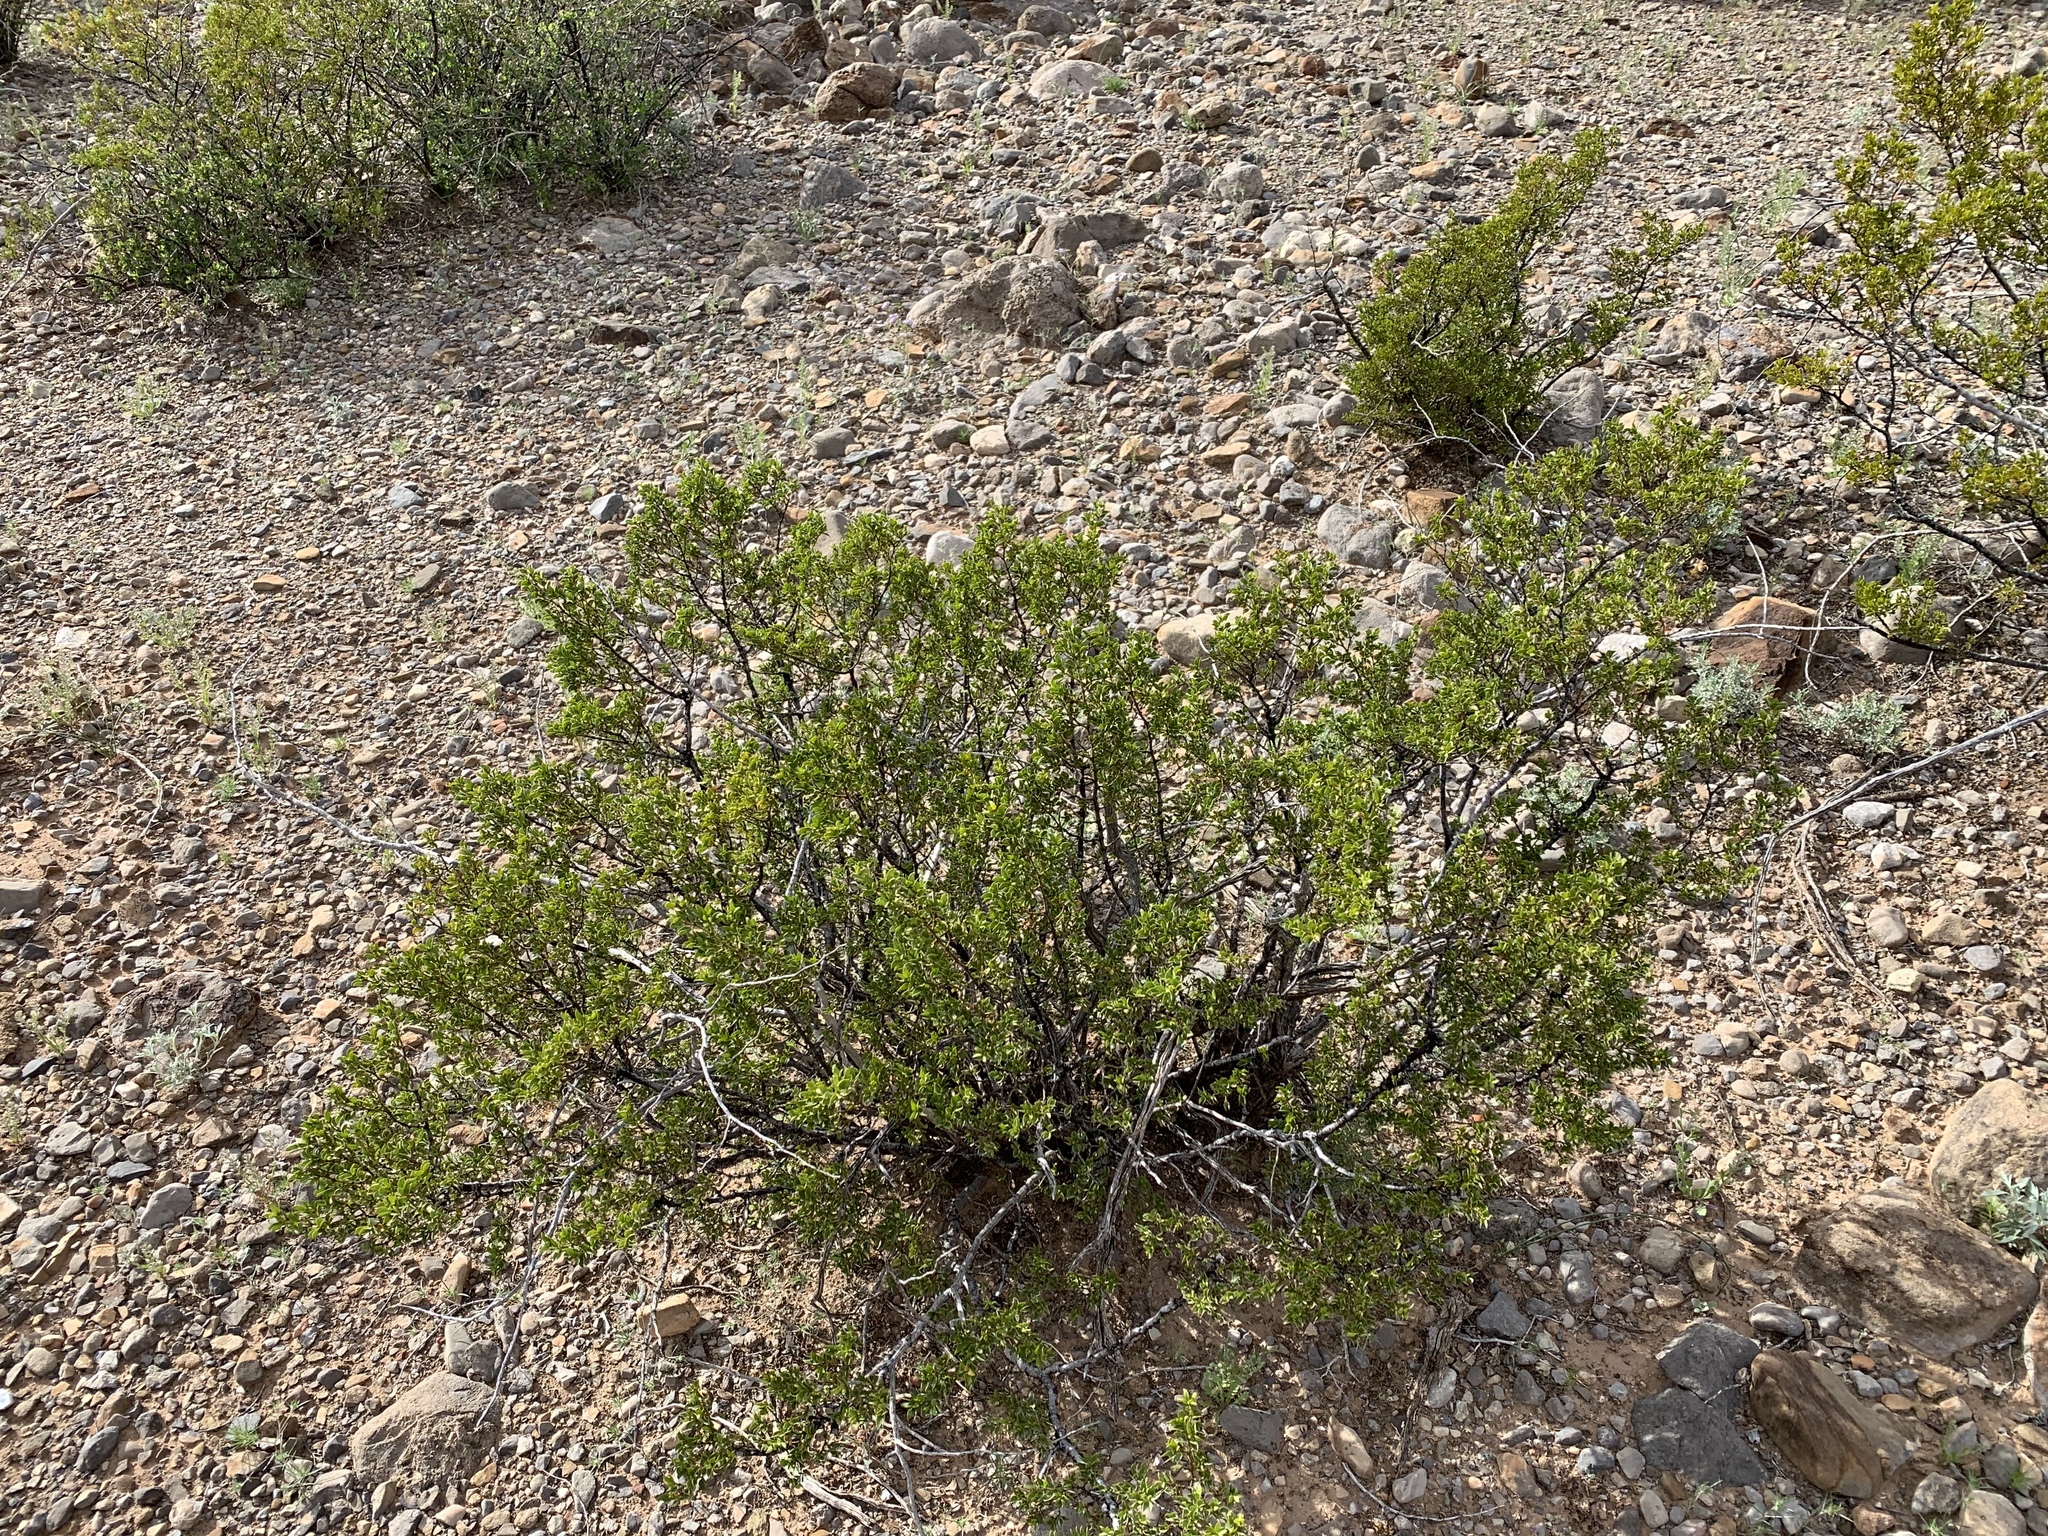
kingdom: Plantae
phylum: Tracheophyta
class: Magnoliopsida
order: Zygophyllales
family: Zygophyllaceae
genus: Larrea
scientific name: Larrea tridentata
